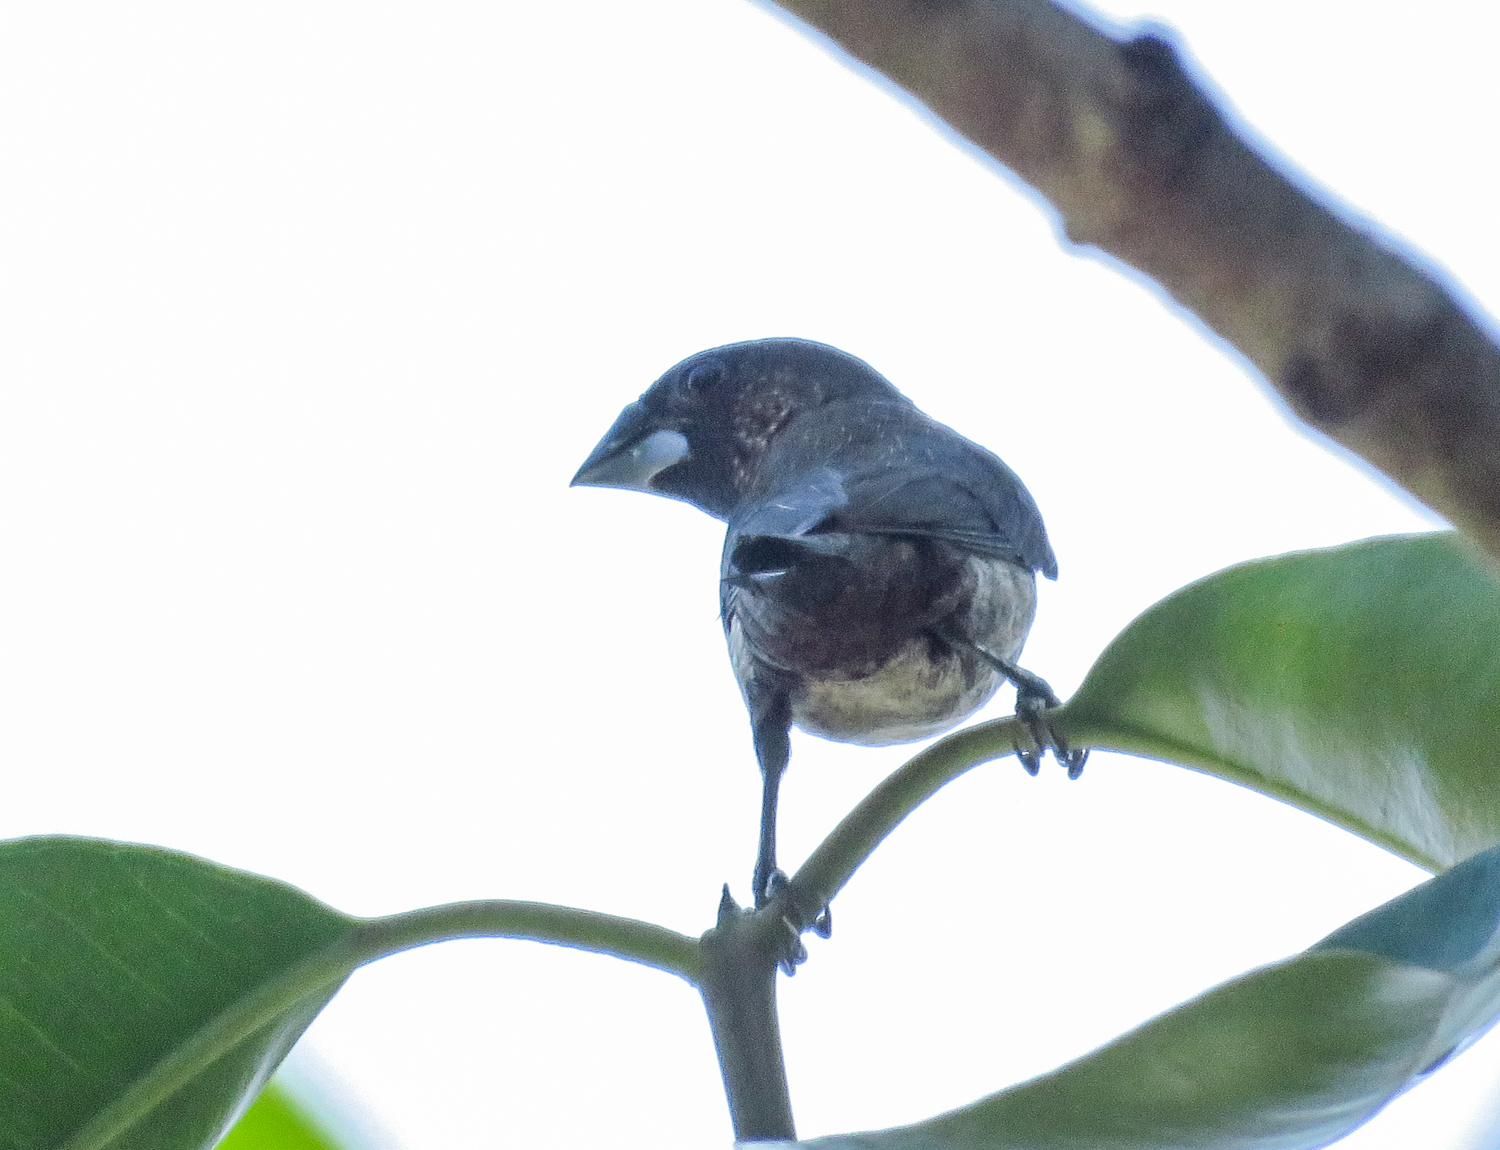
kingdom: Animalia
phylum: Chordata
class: Aves
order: Passeriformes
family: Estrildidae
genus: Lonchura
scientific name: Lonchura striata
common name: White-rumped munia
